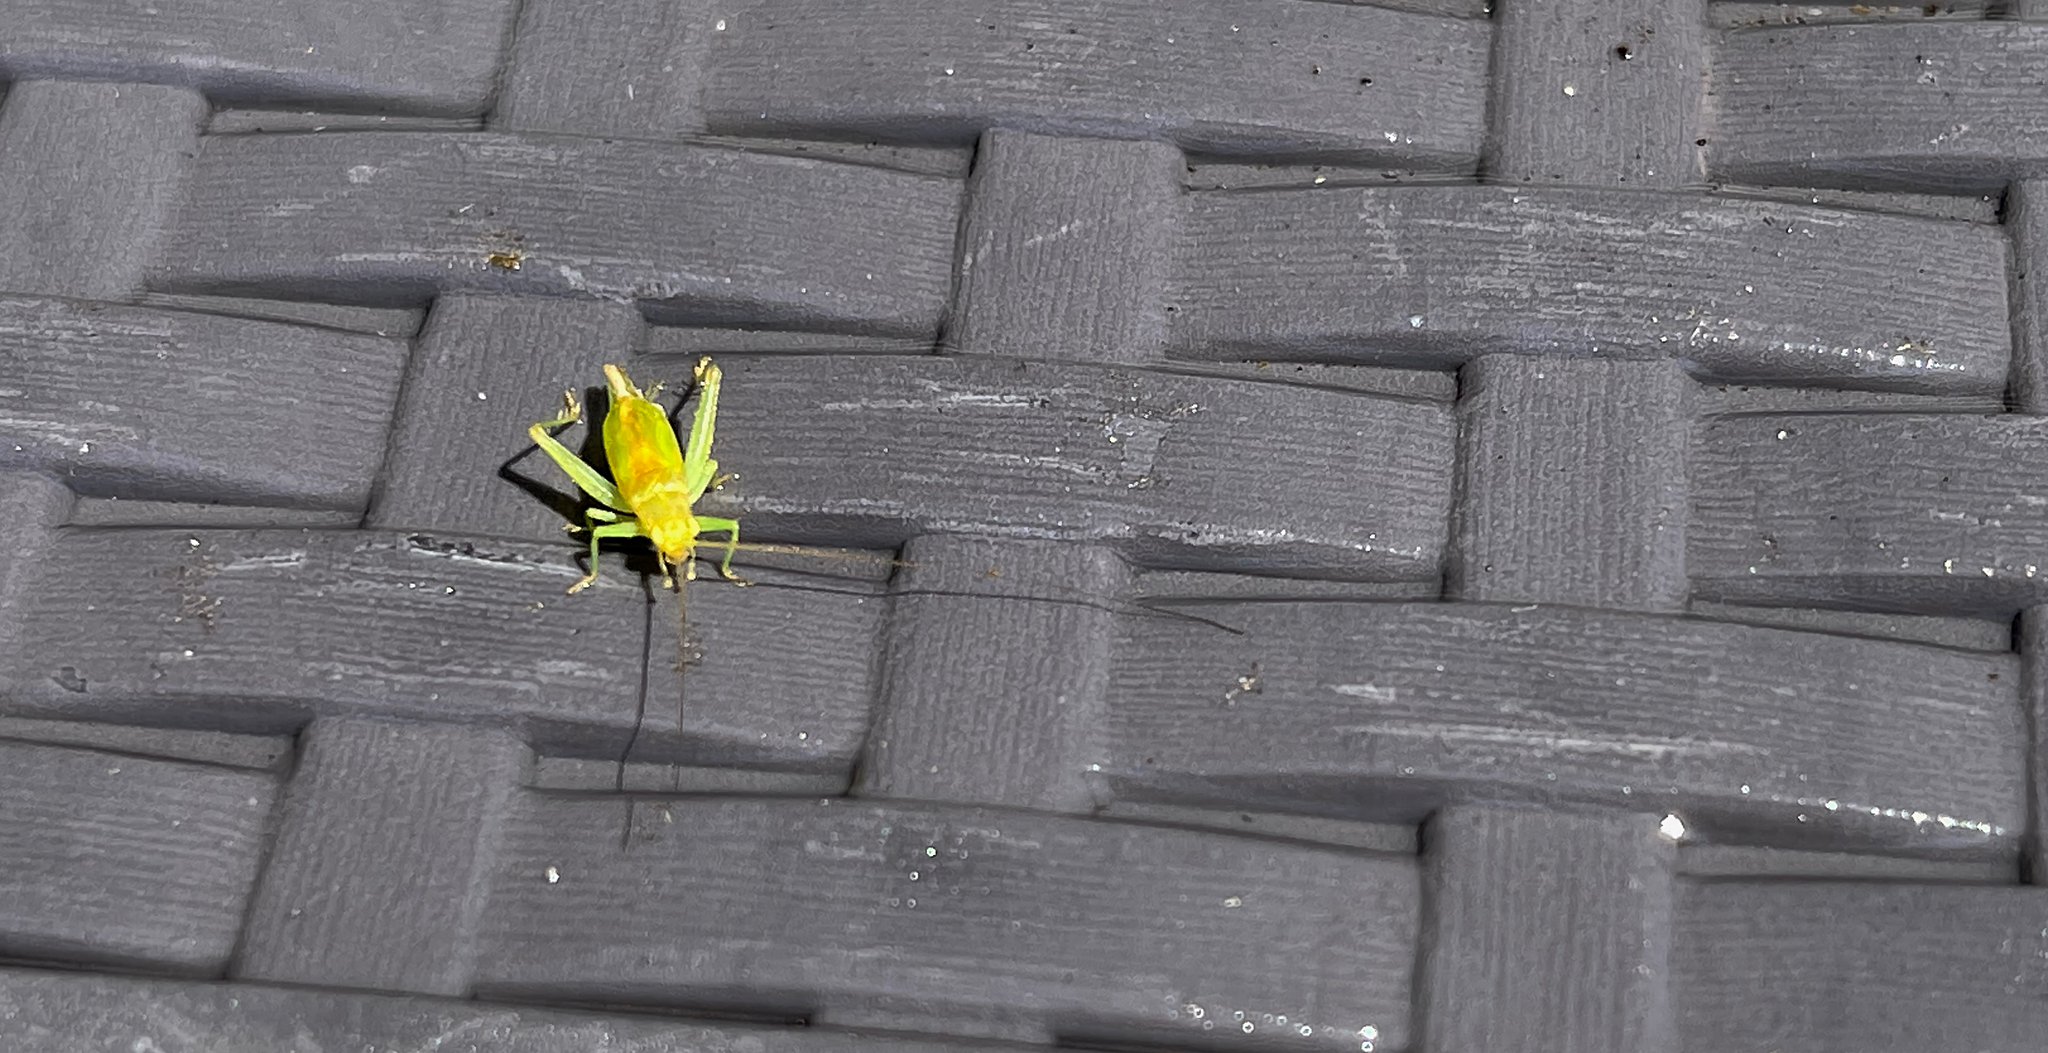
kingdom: Animalia
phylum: Arthropoda
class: Insecta
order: Orthoptera
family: Trigonidiidae
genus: Cyrtoxipha
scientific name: Cyrtoxipha columbiana
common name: Columbian trig
